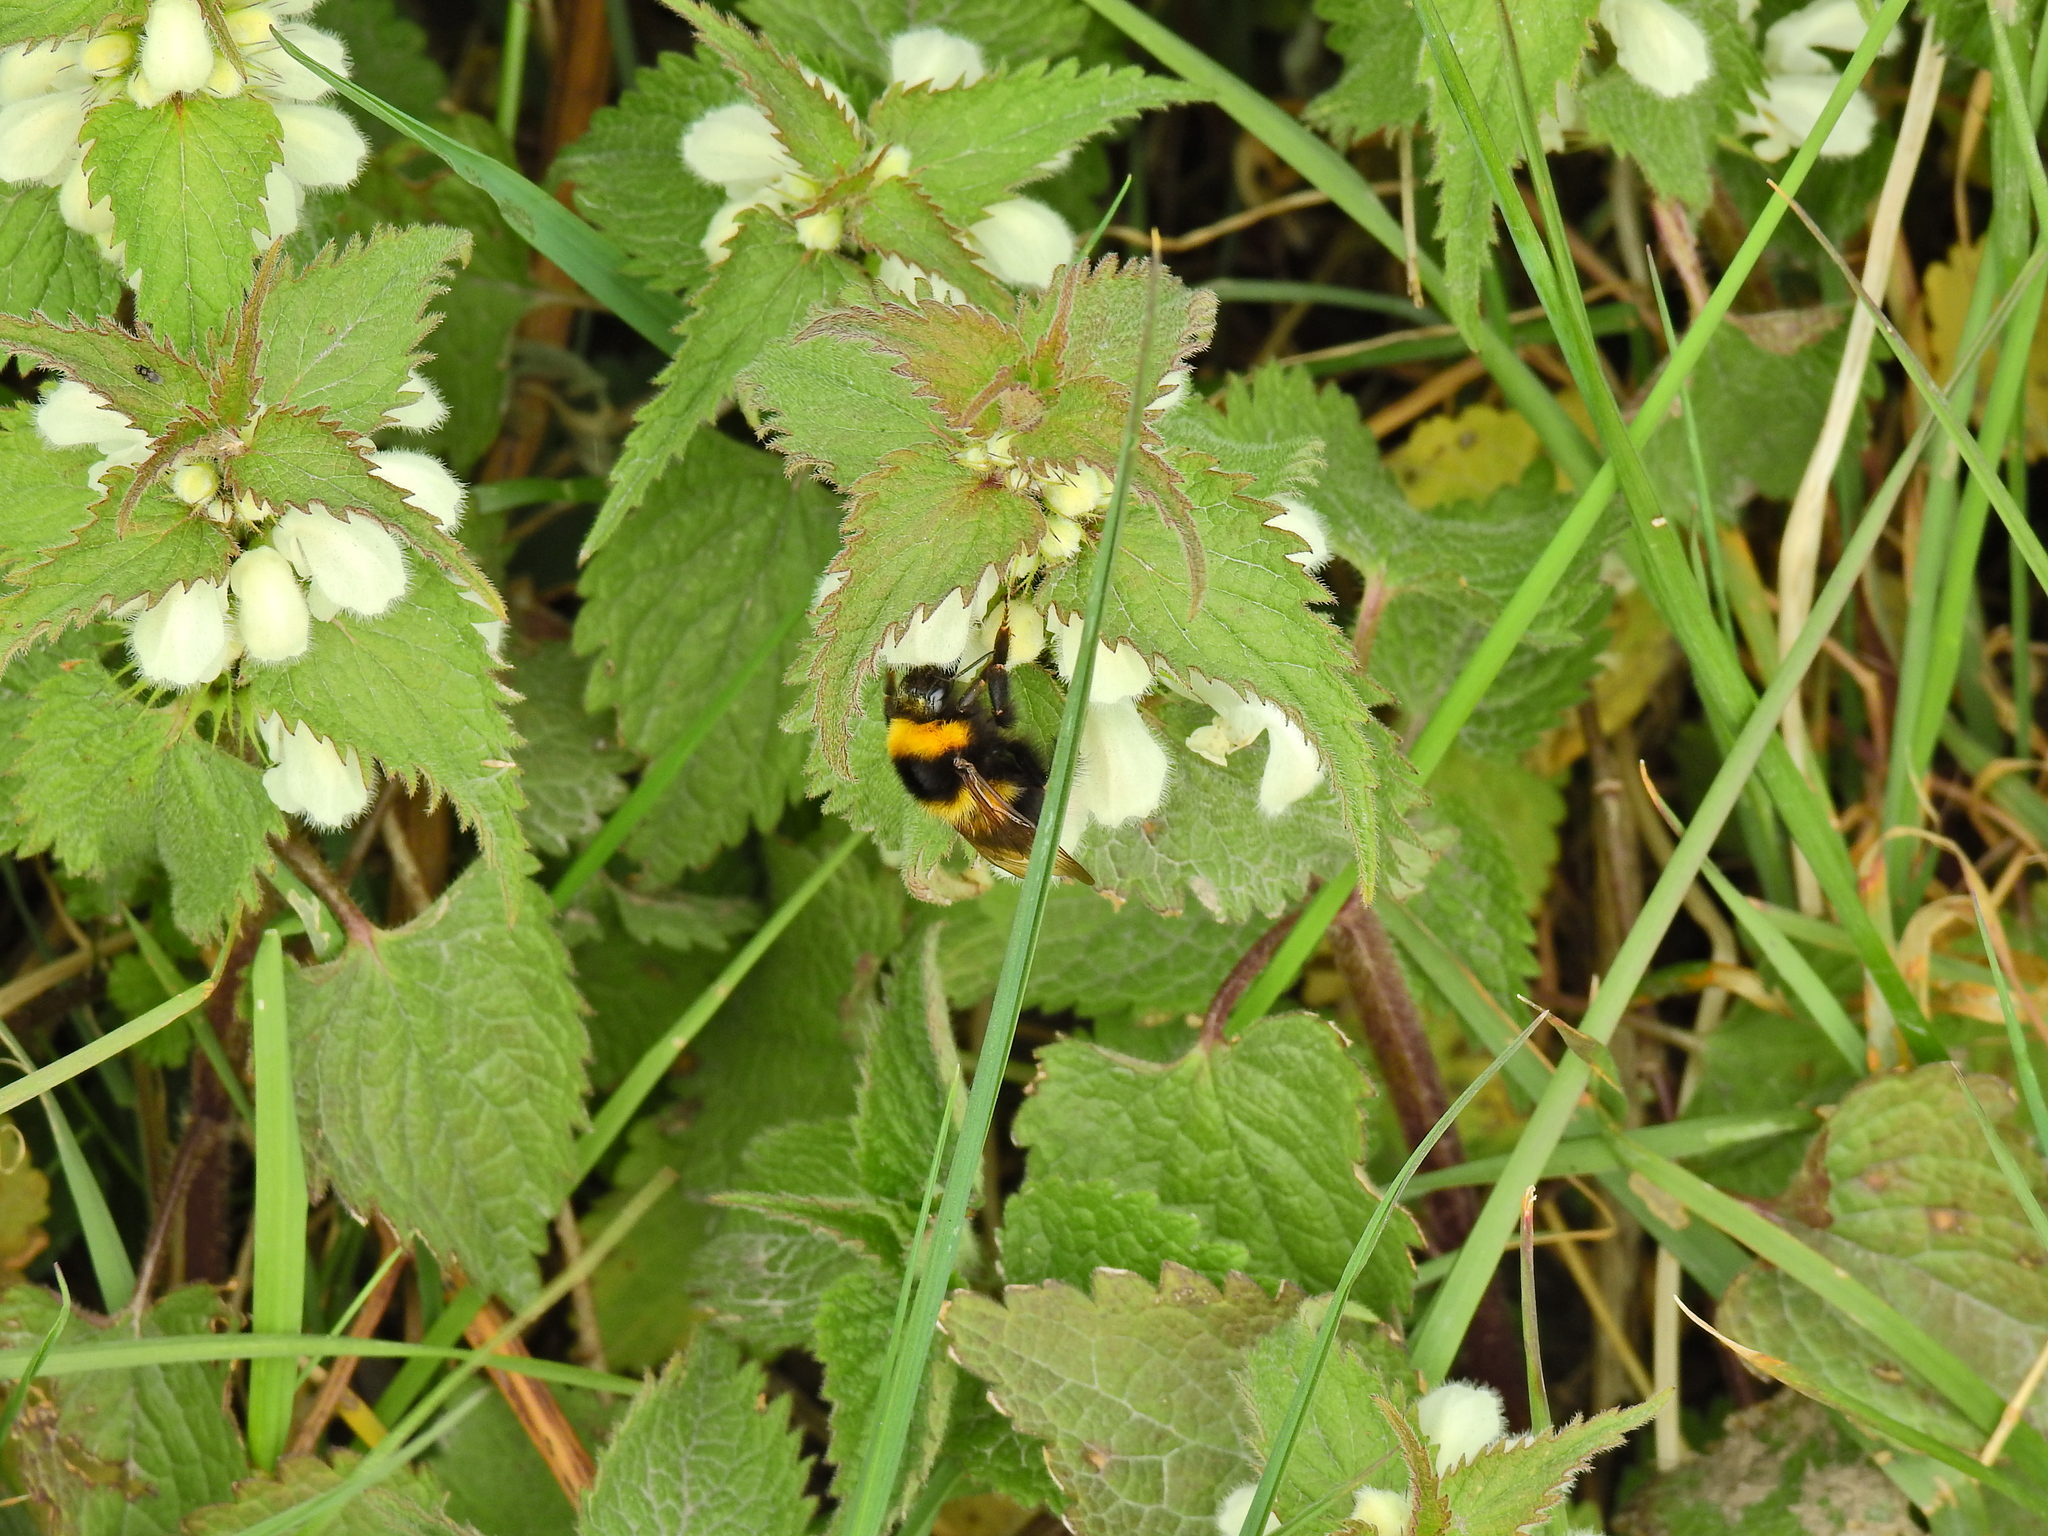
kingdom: Animalia
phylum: Arthropoda
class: Insecta
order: Hymenoptera
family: Apidae
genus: Bombus
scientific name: Bombus hortorum
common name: Garden bumblebee
